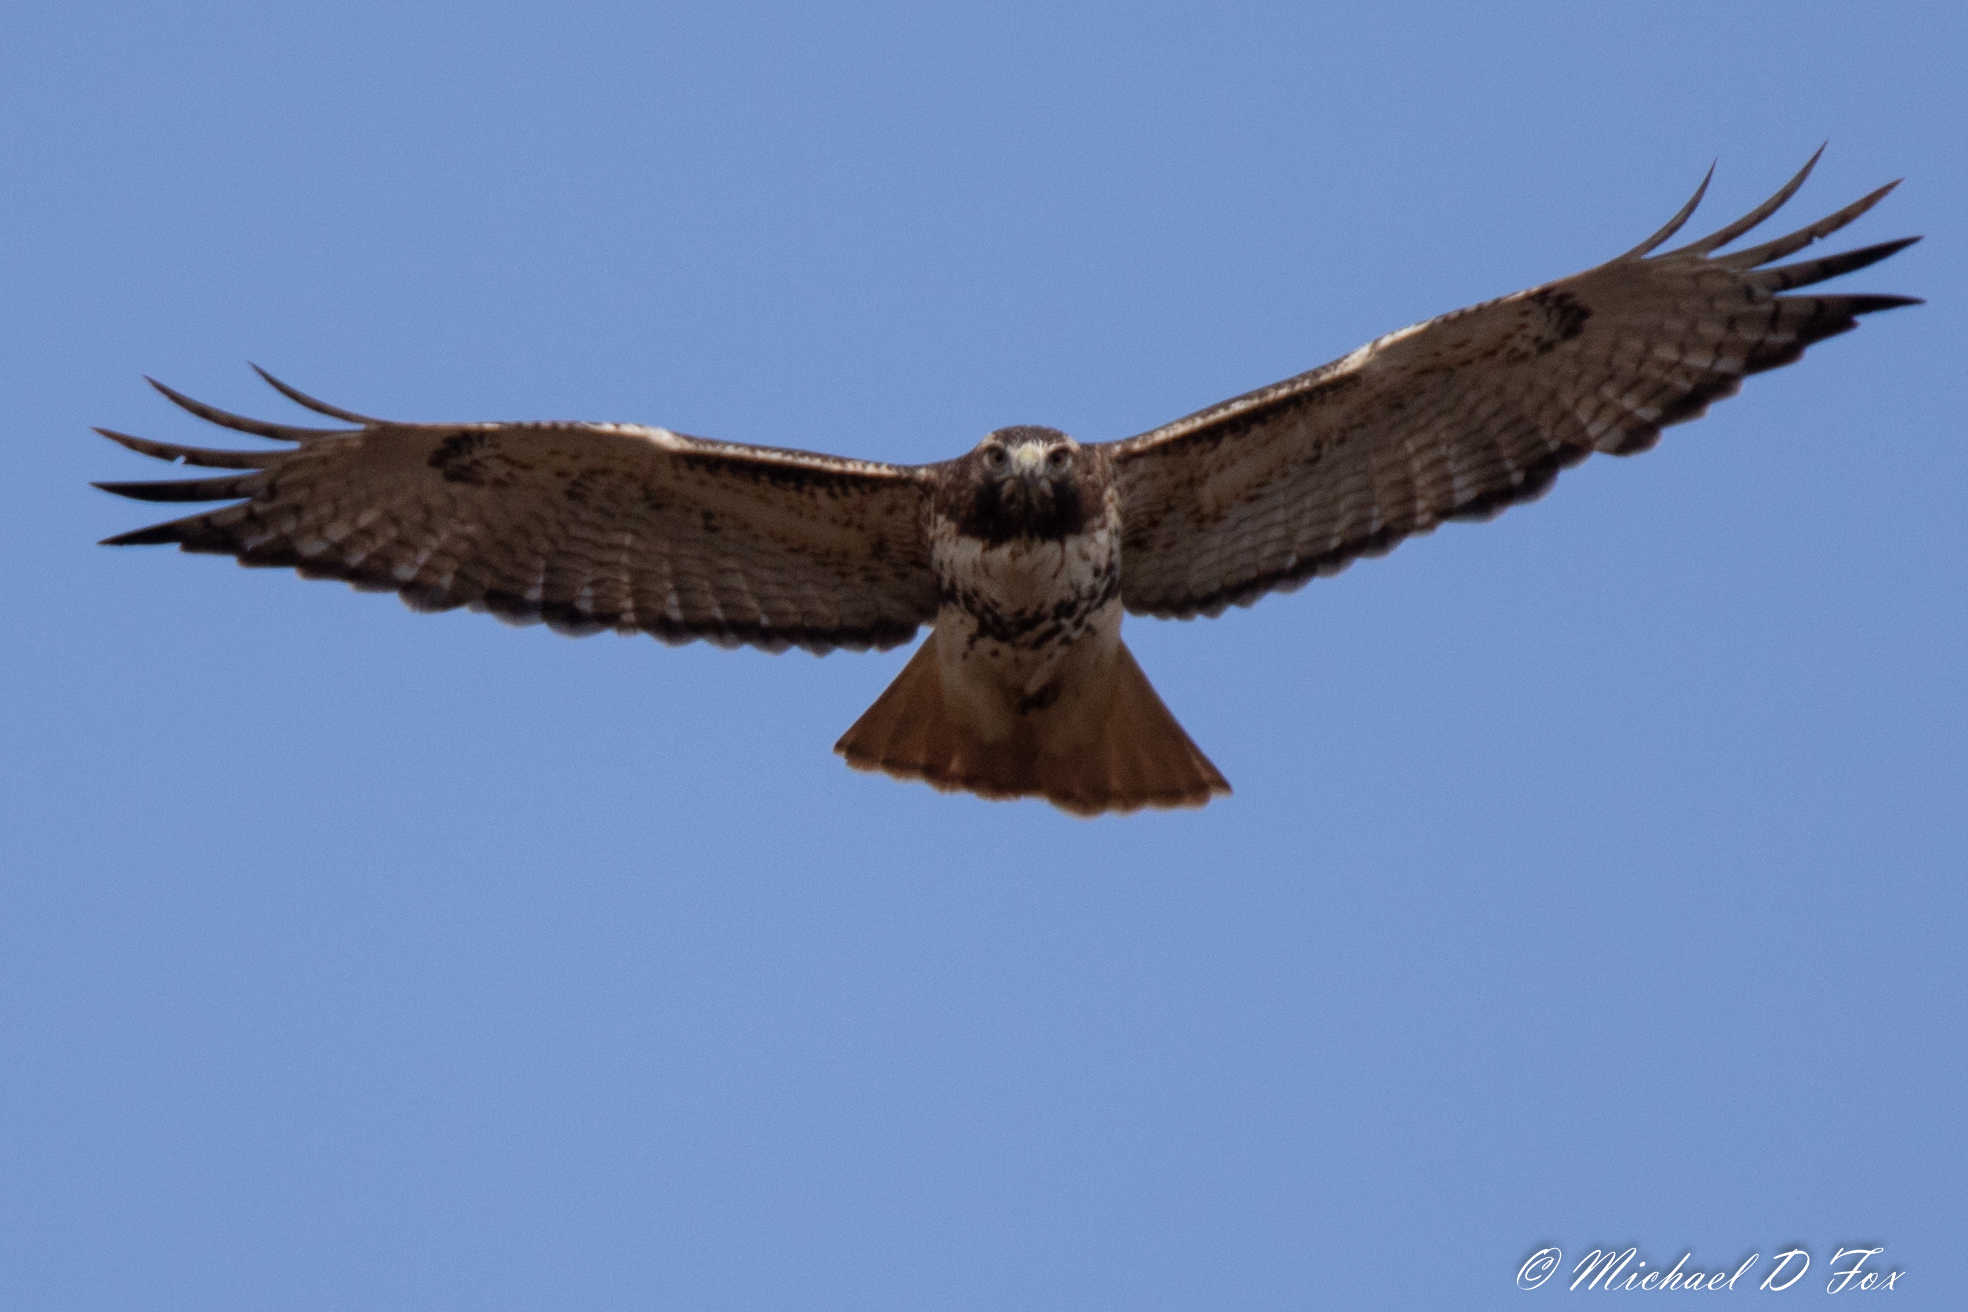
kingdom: Animalia
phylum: Chordata
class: Aves
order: Accipitriformes
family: Accipitridae
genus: Buteo
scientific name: Buteo jamaicensis
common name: Red-tailed hawk
